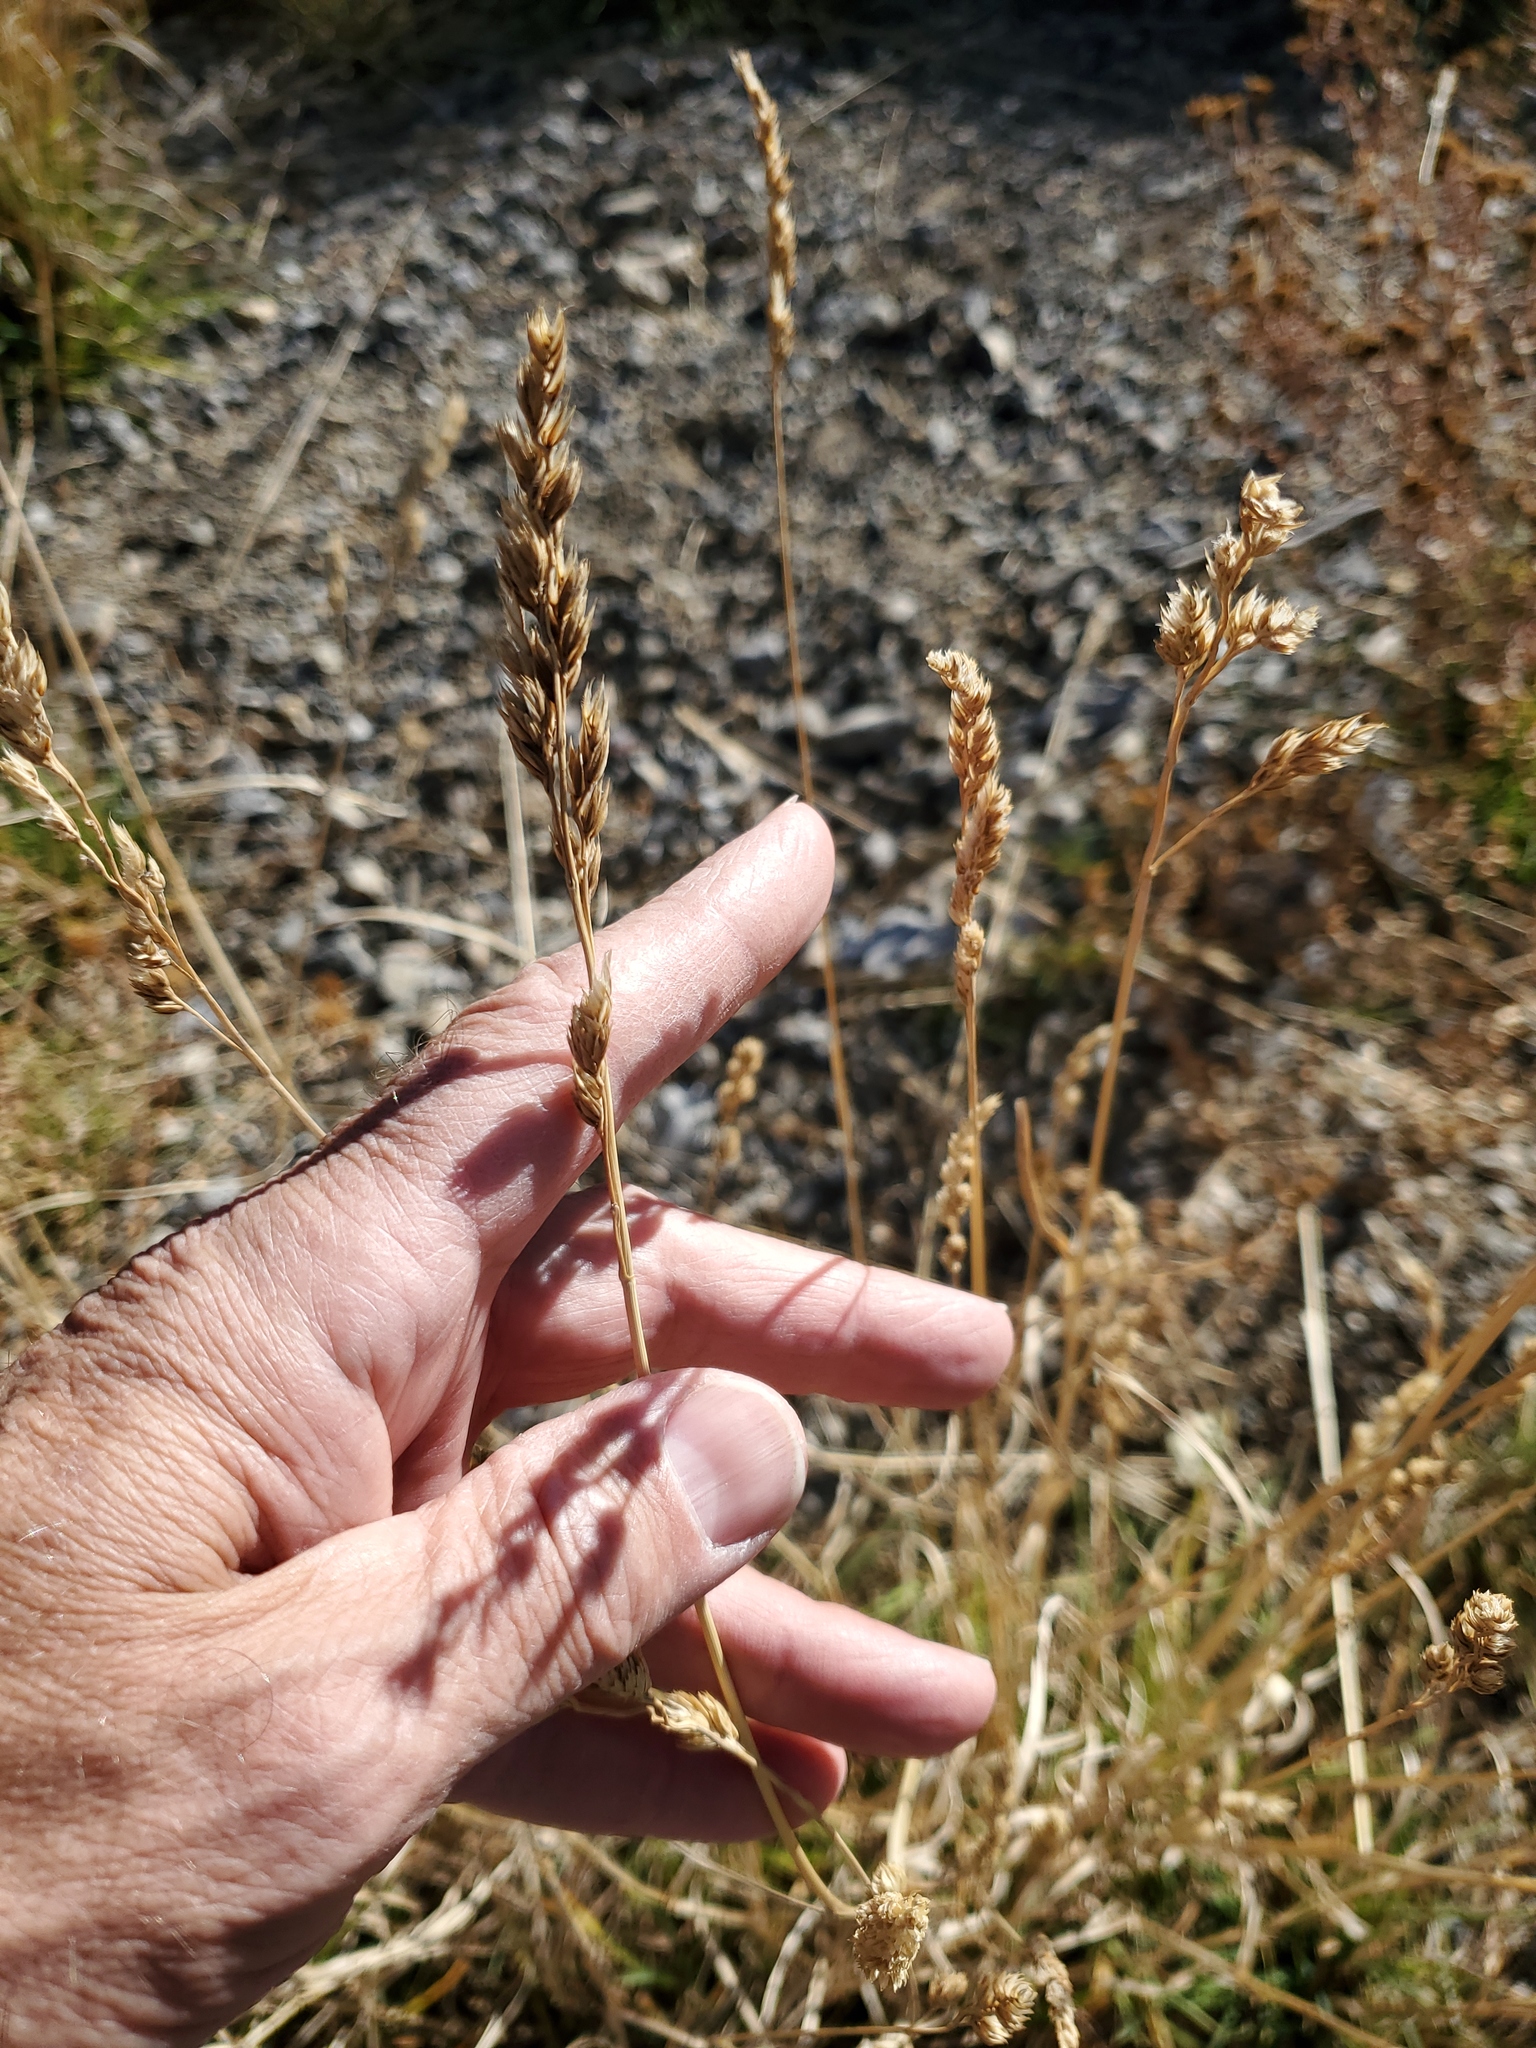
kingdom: Plantae
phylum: Tracheophyta
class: Liliopsida
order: Poales
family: Poaceae
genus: Dactylis
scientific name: Dactylis glomerata
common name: Orchardgrass
